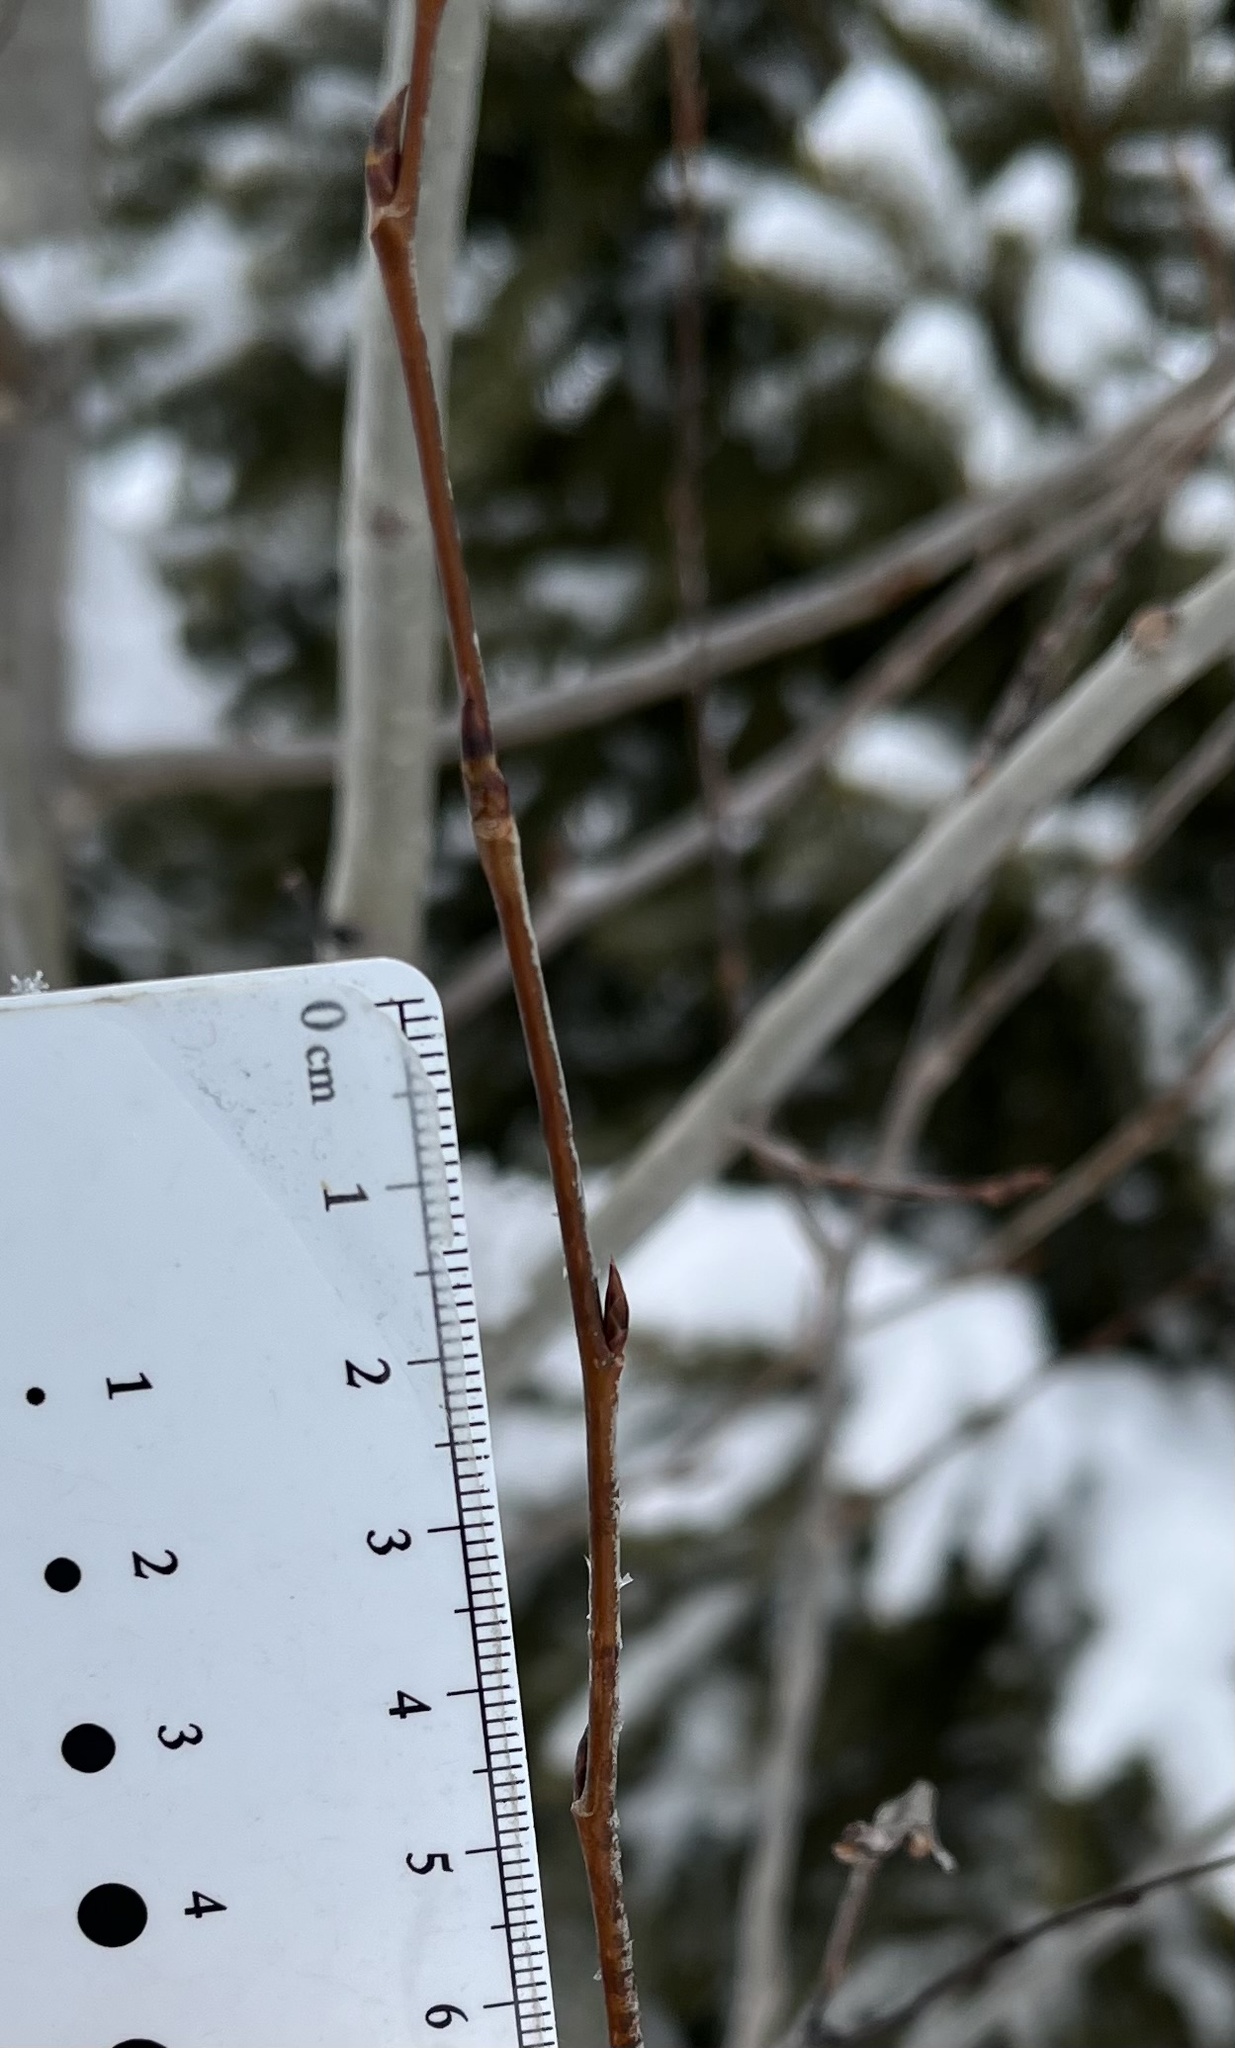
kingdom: Plantae
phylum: Tracheophyta
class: Magnoliopsida
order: Malpighiales
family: Salicaceae
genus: Populus
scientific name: Populus tremuloides
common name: Quaking aspen
